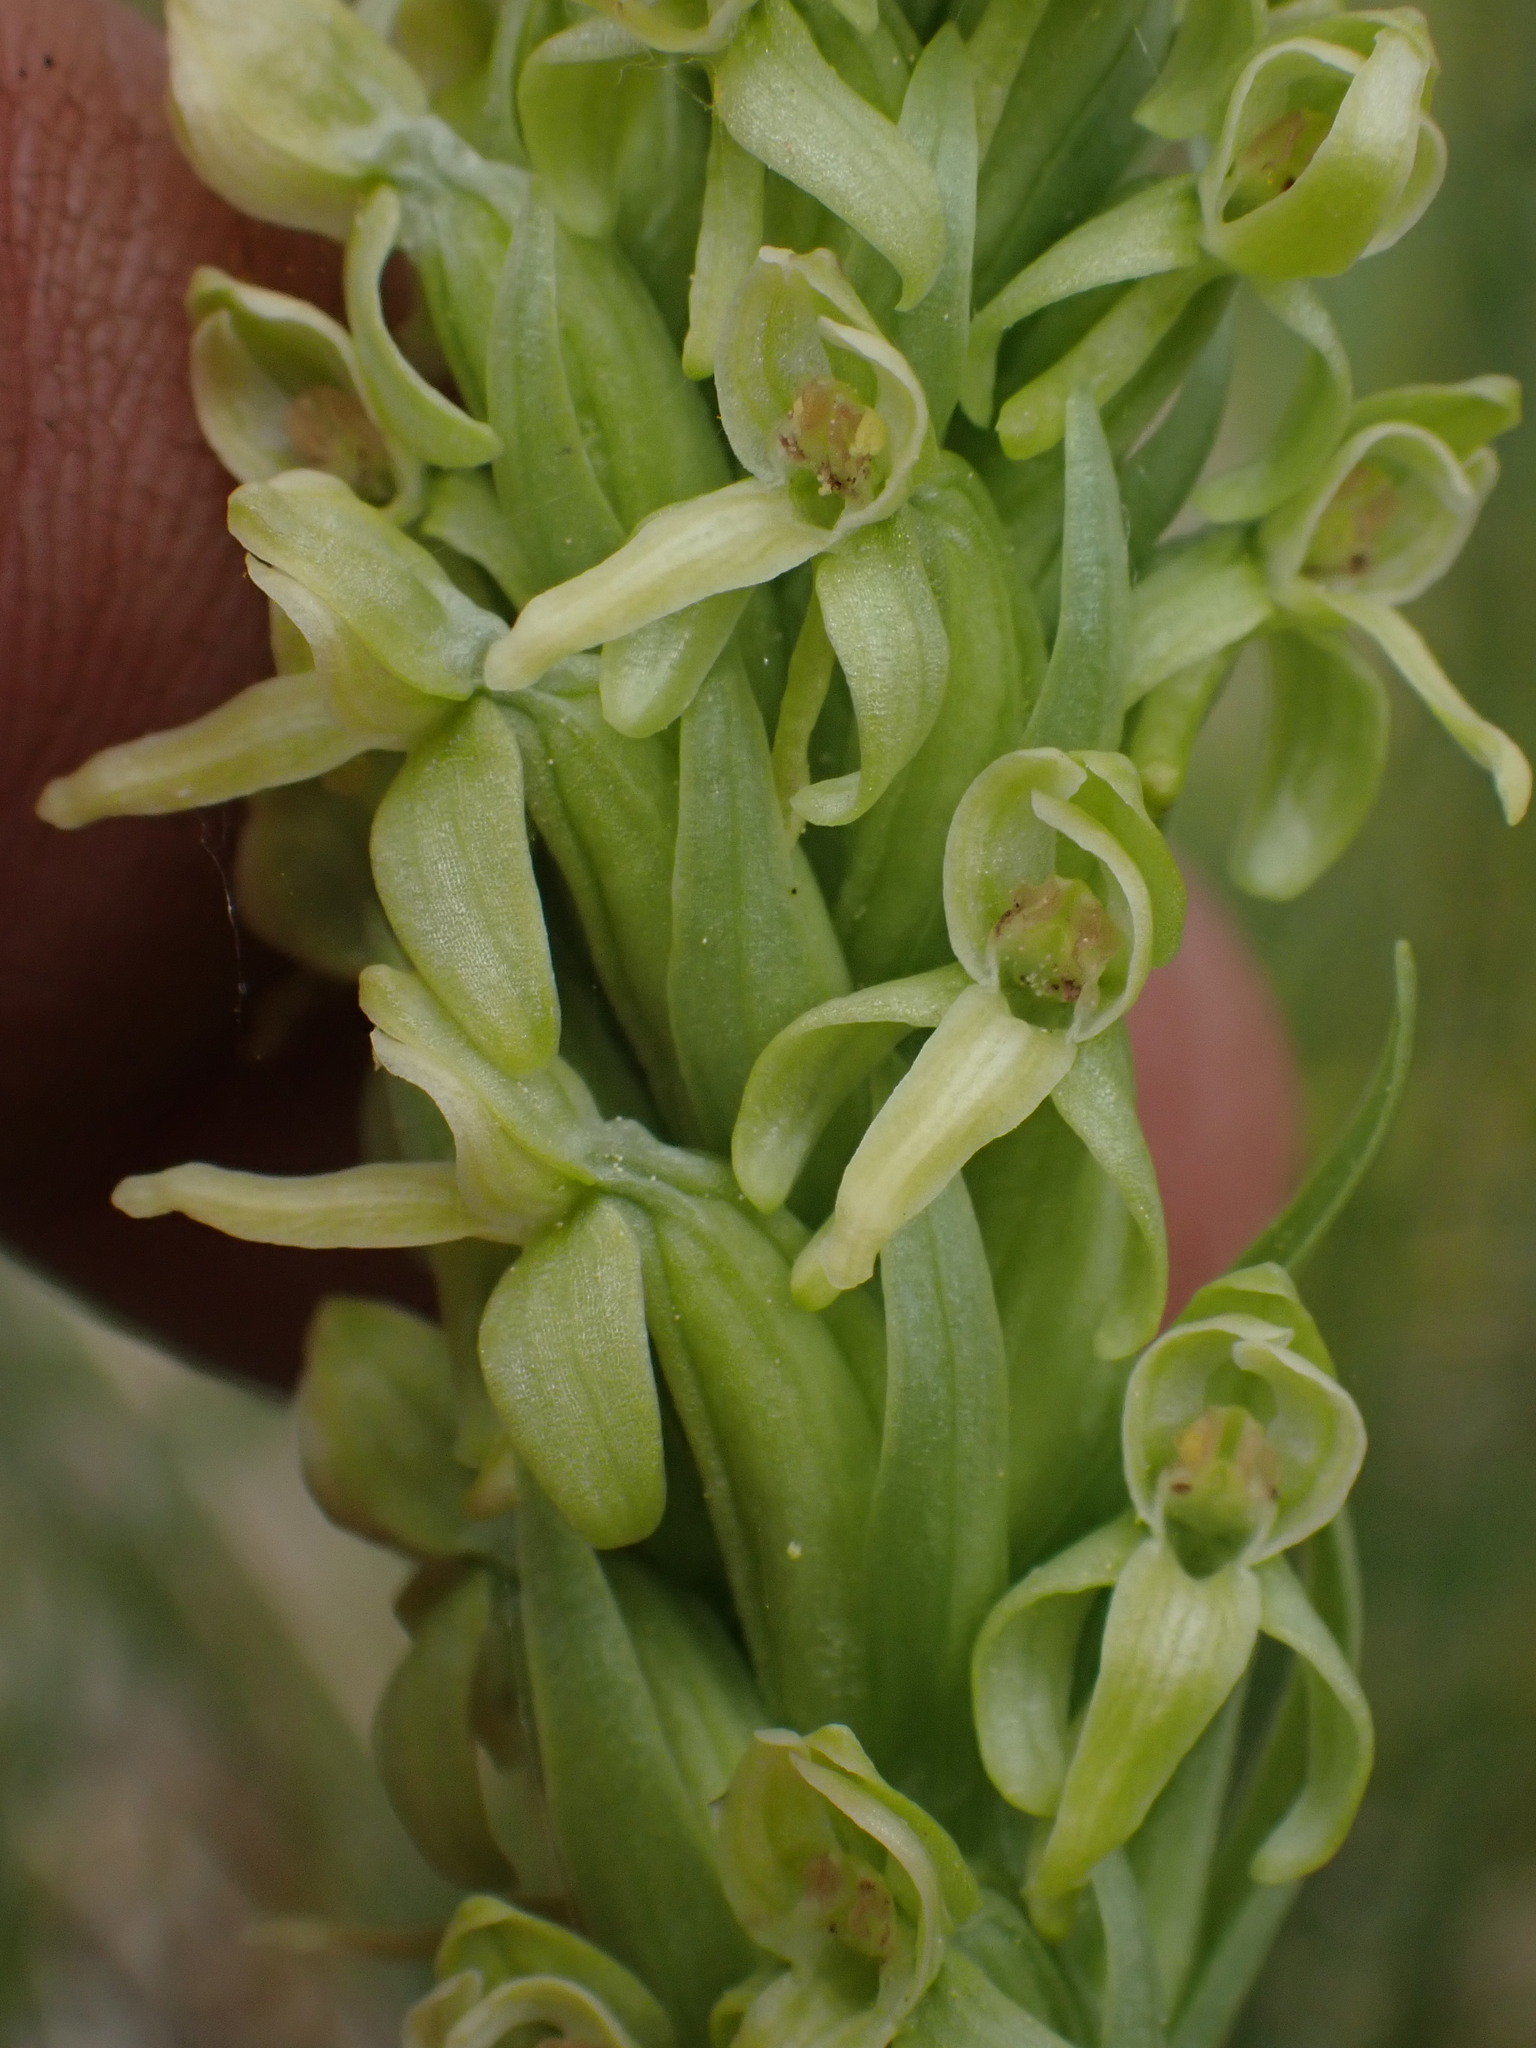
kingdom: Plantae
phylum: Tracheophyta
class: Liliopsida
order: Asparagales
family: Orchidaceae
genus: Platanthera
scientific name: Platanthera huronensis
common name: Fragrant green orchid
